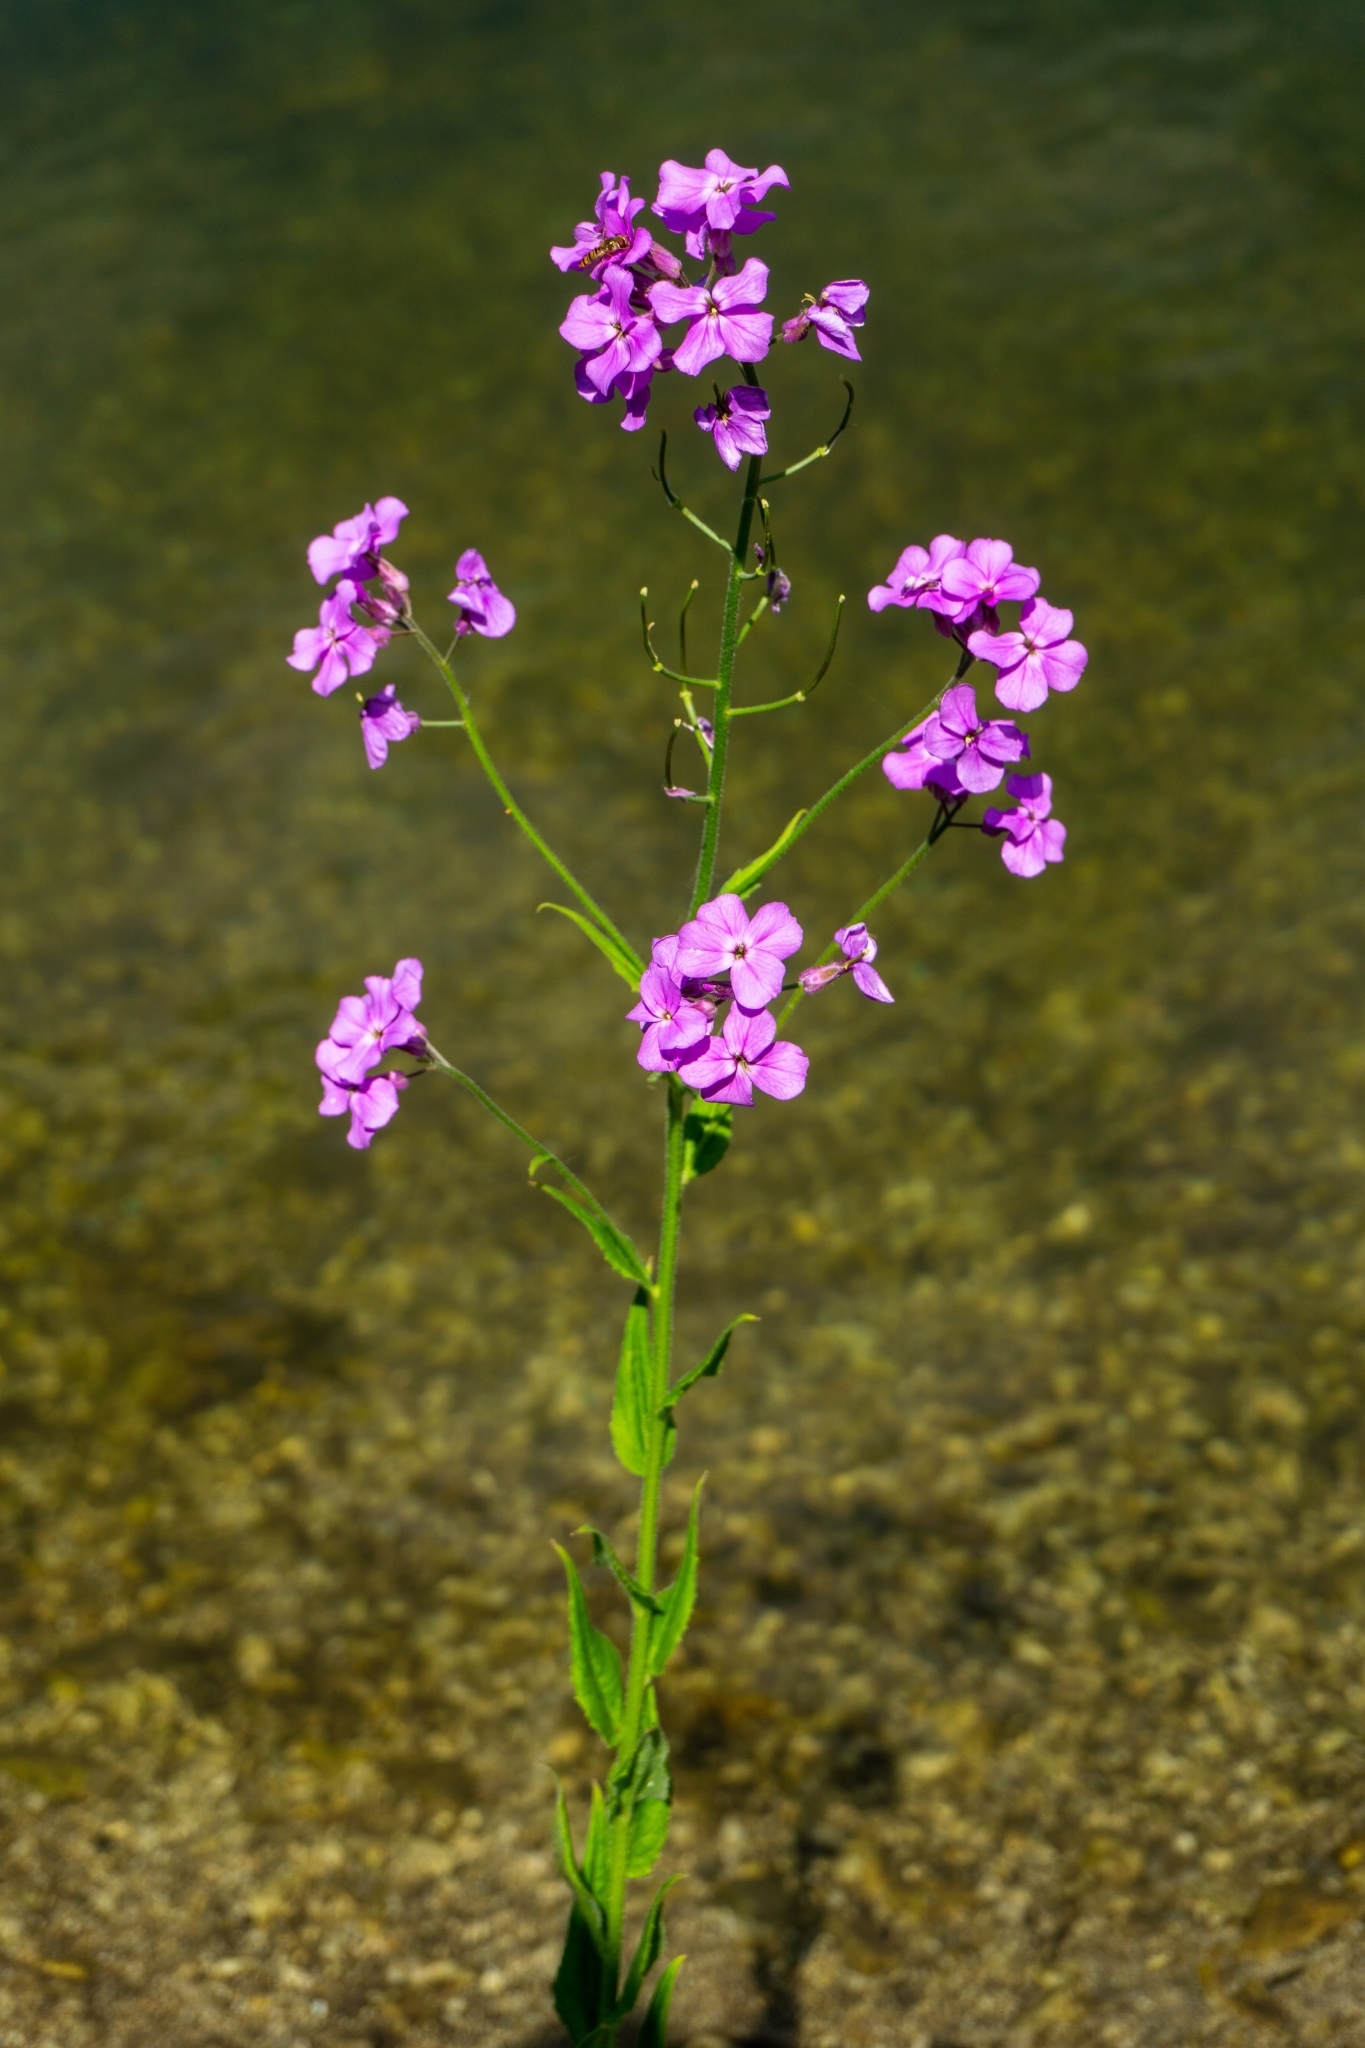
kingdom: Plantae
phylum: Tracheophyta
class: Magnoliopsida
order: Brassicales
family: Brassicaceae
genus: Hesperis
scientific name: Hesperis matronalis
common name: Dame's-violet
